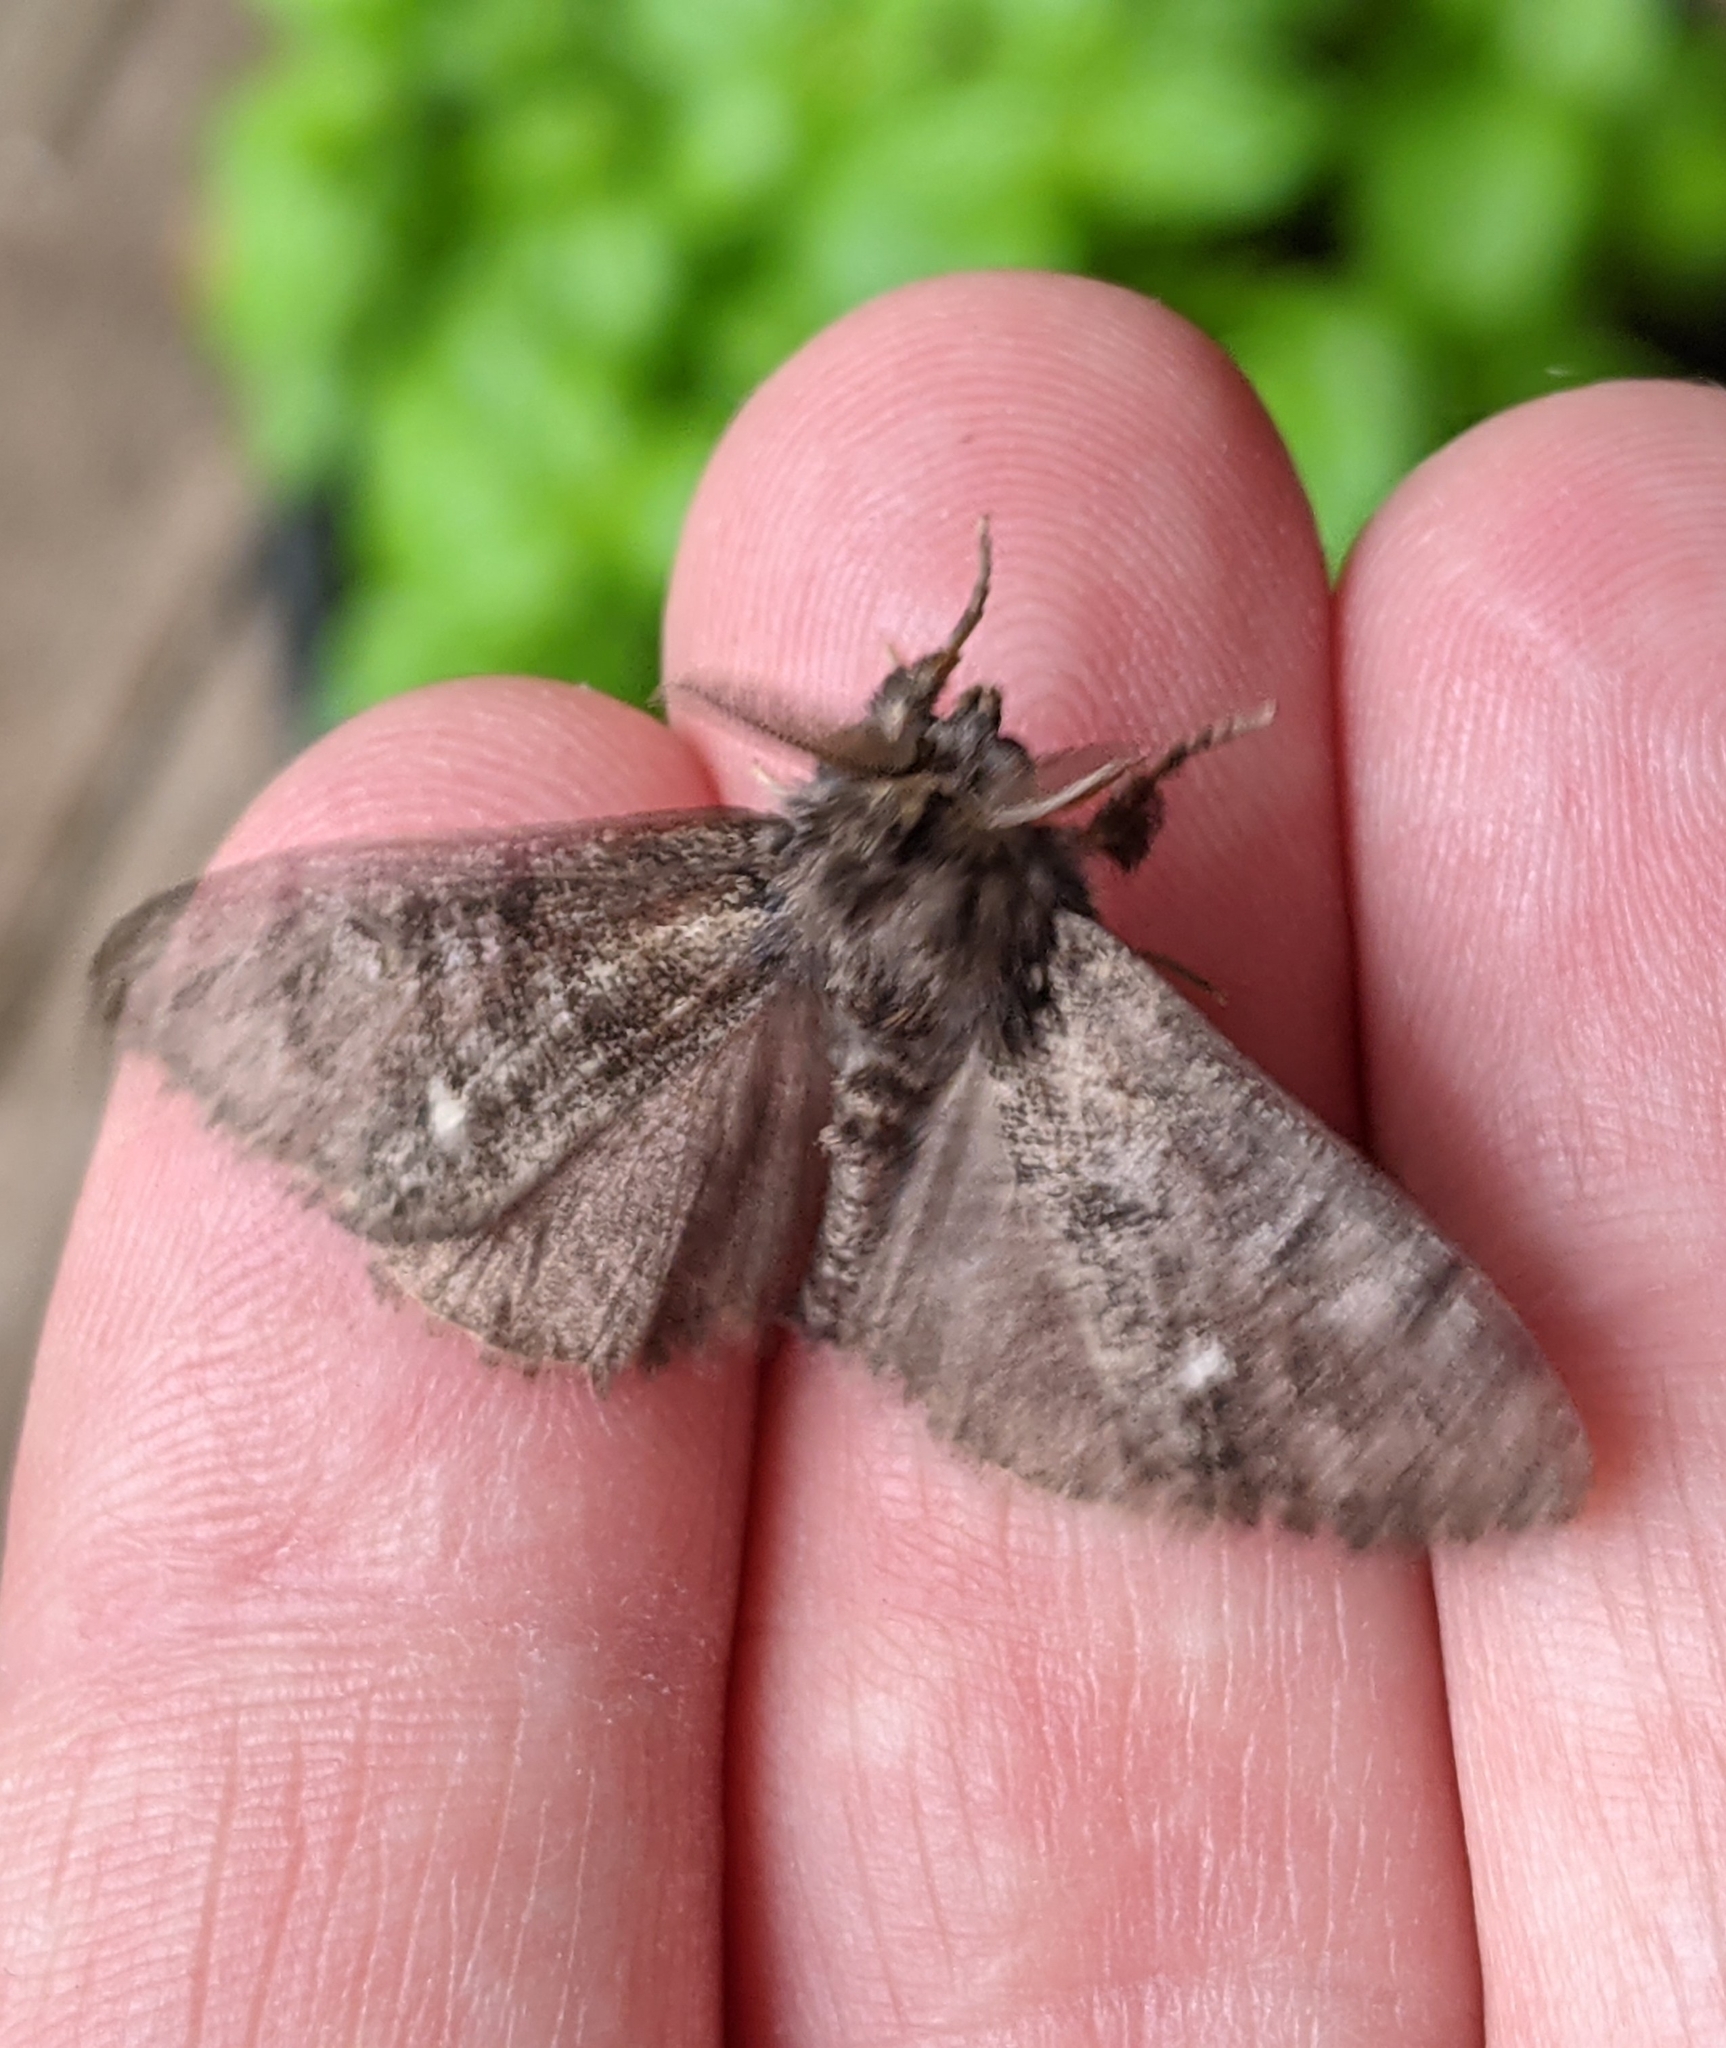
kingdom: Animalia
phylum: Arthropoda
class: Insecta
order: Lepidoptera
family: Erebidae
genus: Dasychira
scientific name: Dasychira grisefacta
